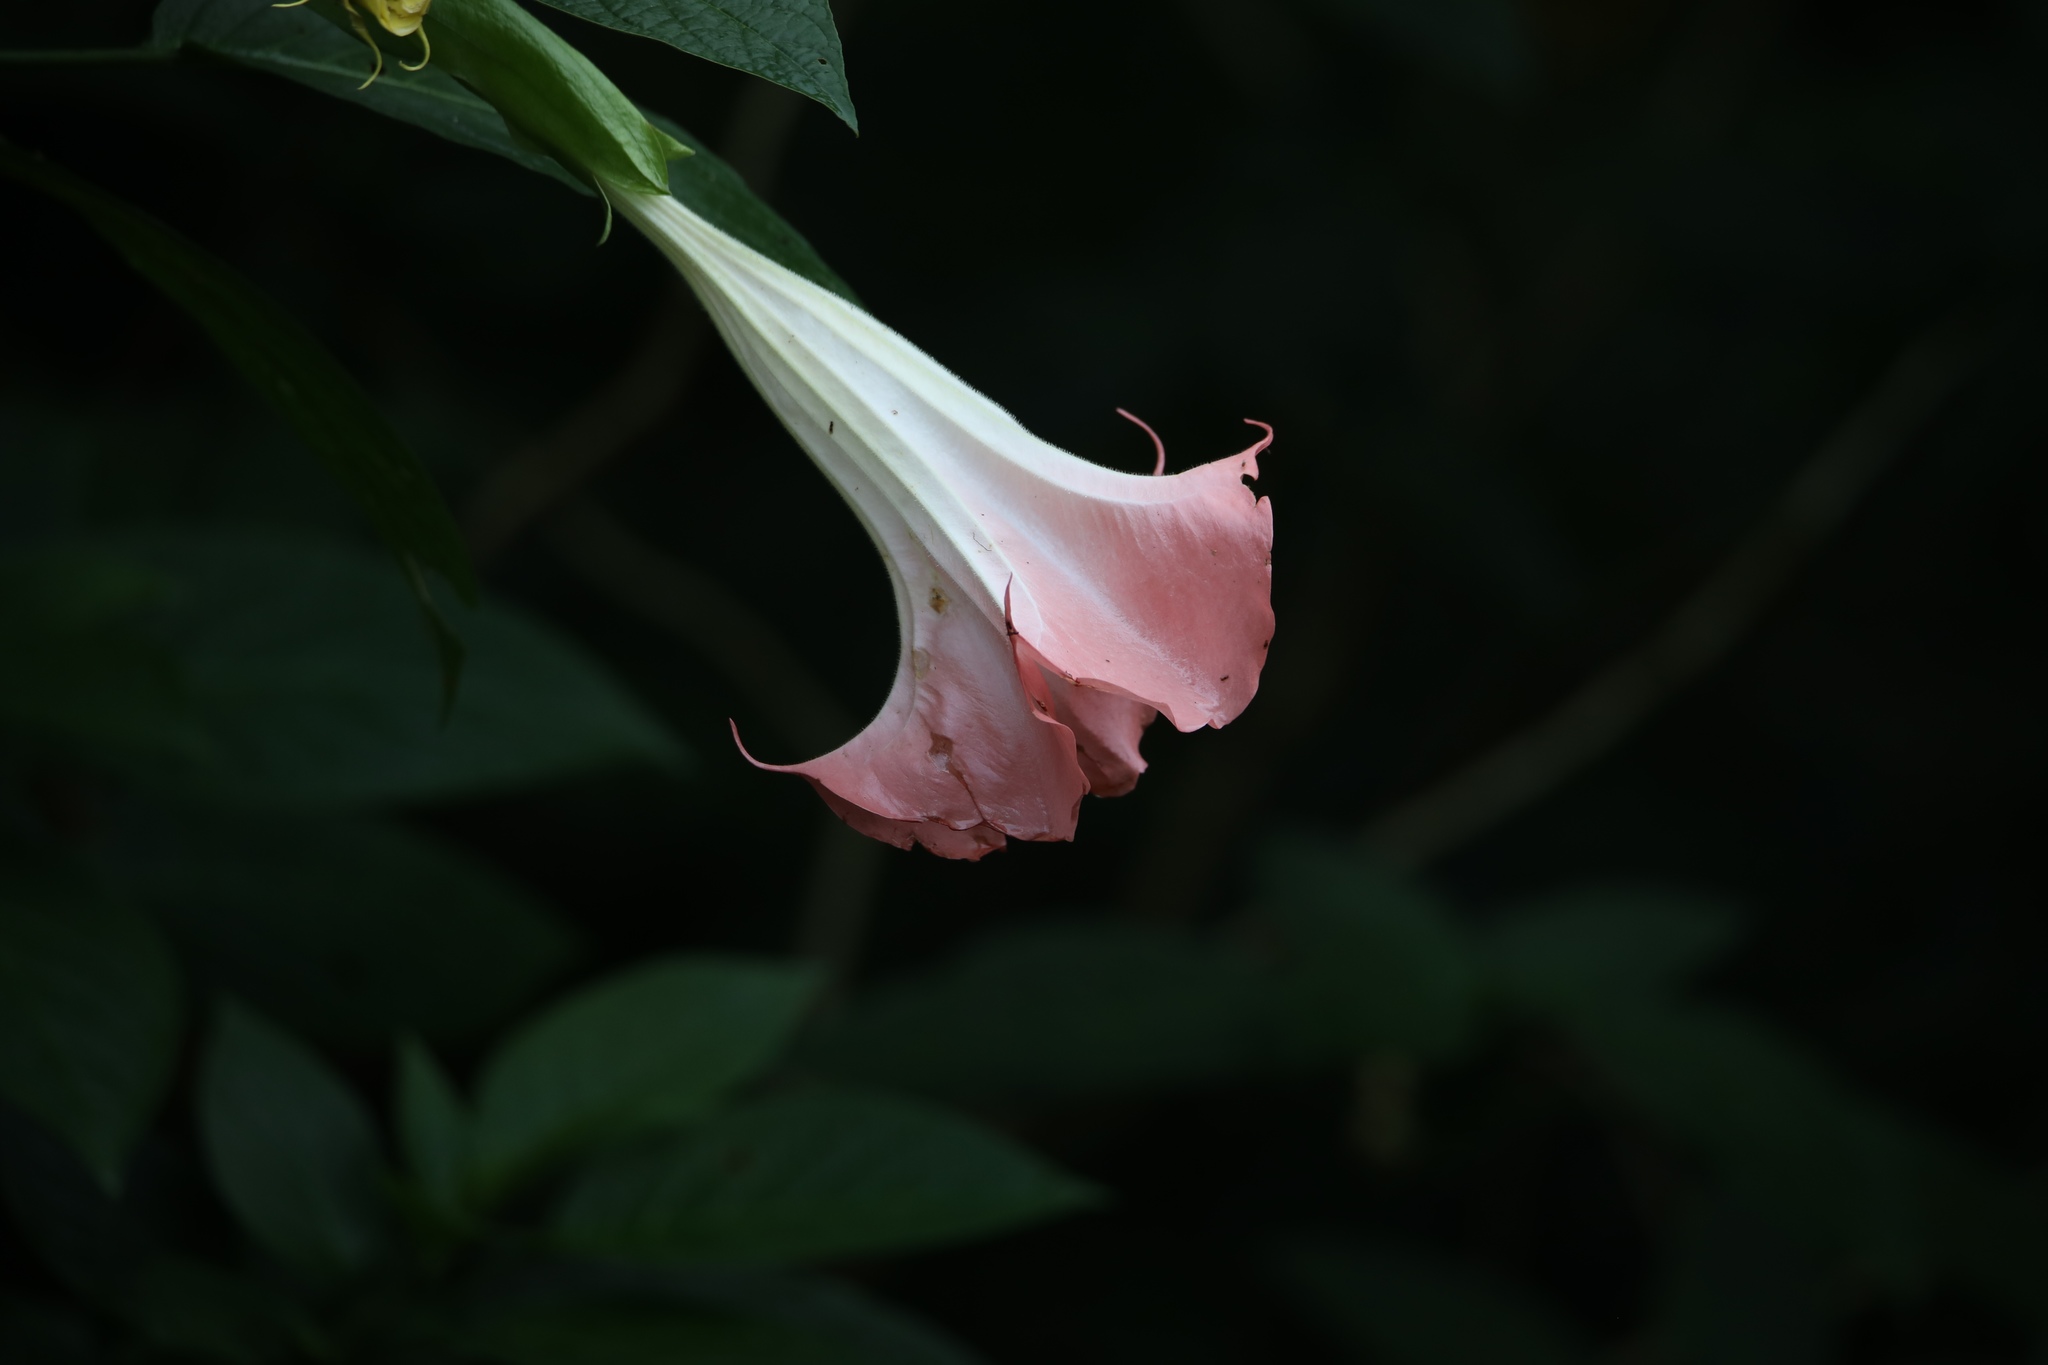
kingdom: Plantae
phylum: Tracheophyta
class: Magnoliopsida
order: Solanales
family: Solanaceae
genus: Brugmansia
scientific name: Brugmansia suaveolens
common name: Angel's tears
